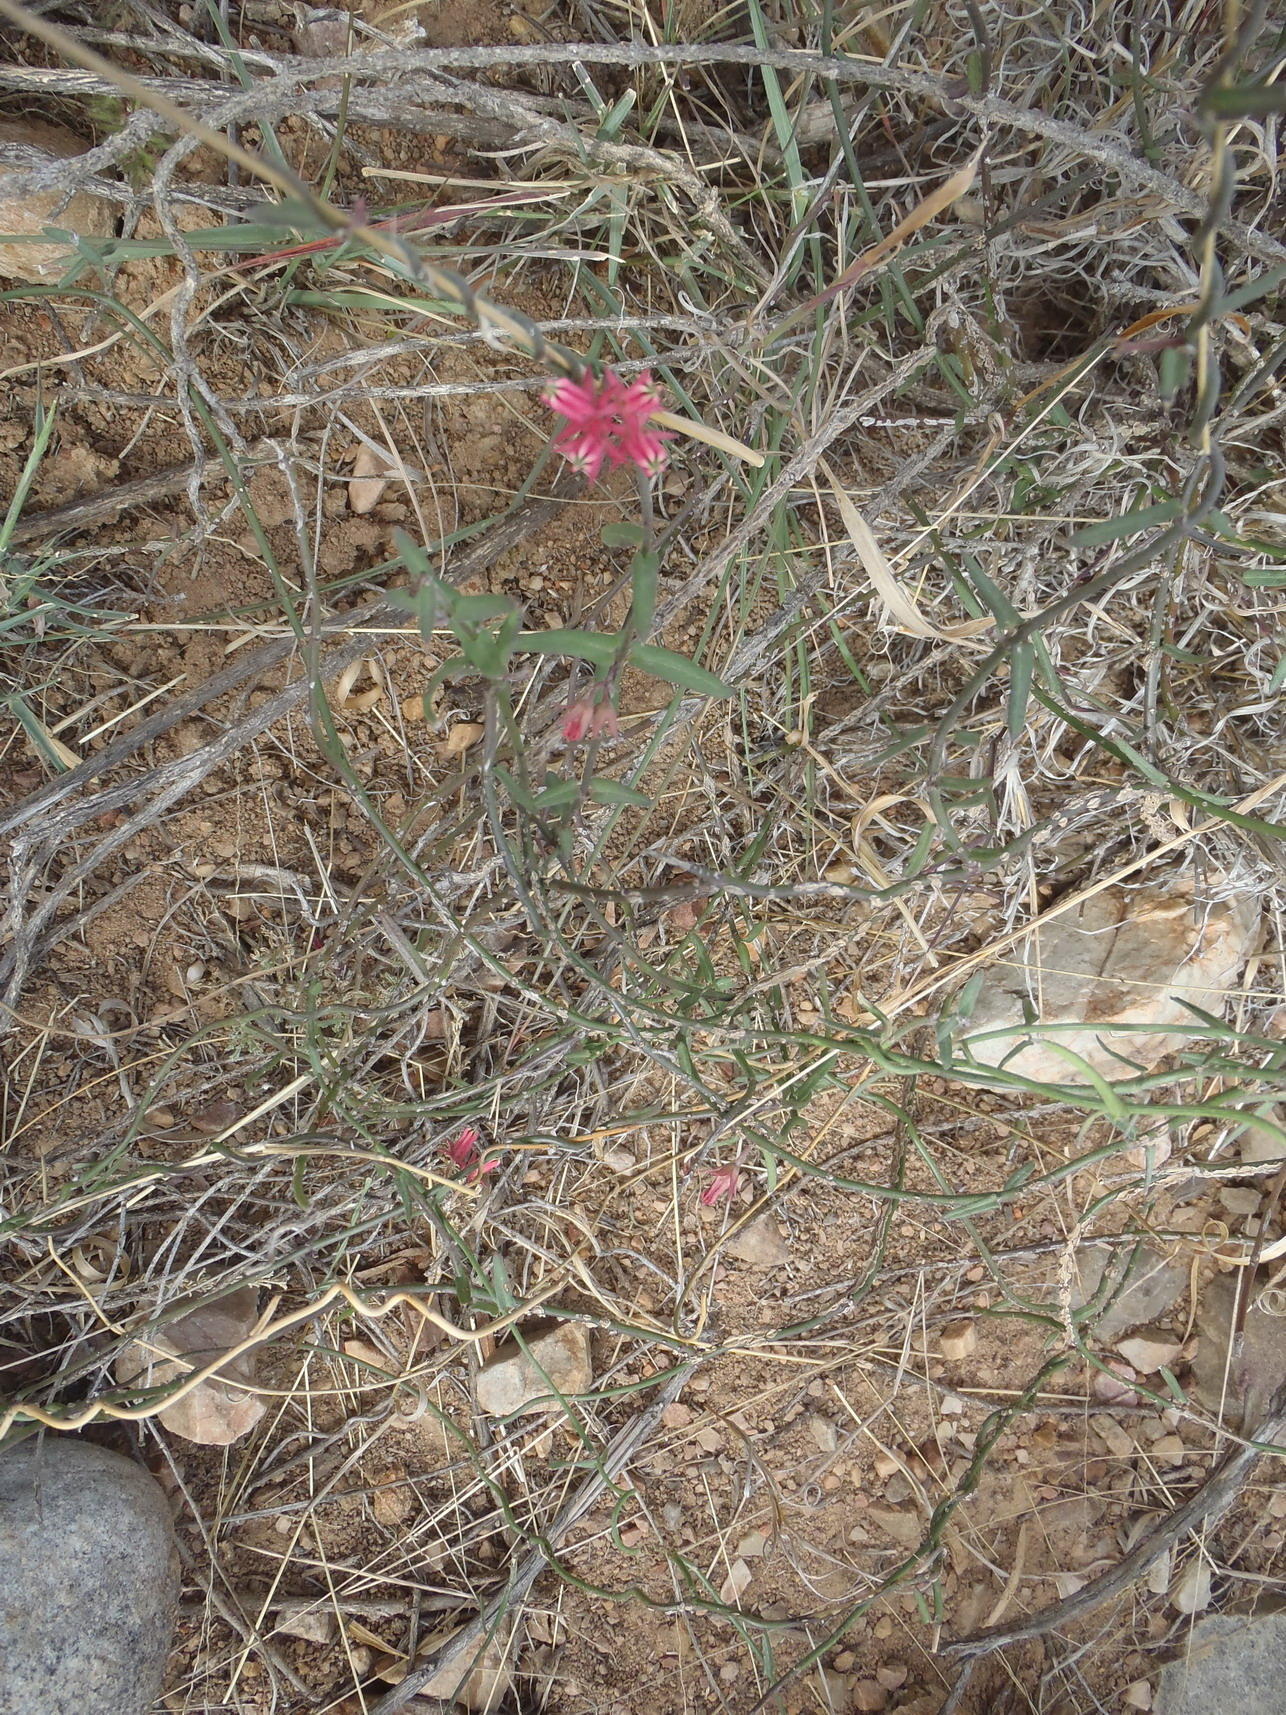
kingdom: Plantae
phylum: Tracheophyta
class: Magnoliopsida
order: Gentianales
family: Apocynaceae
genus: Microloma
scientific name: Microloma sagittatum
